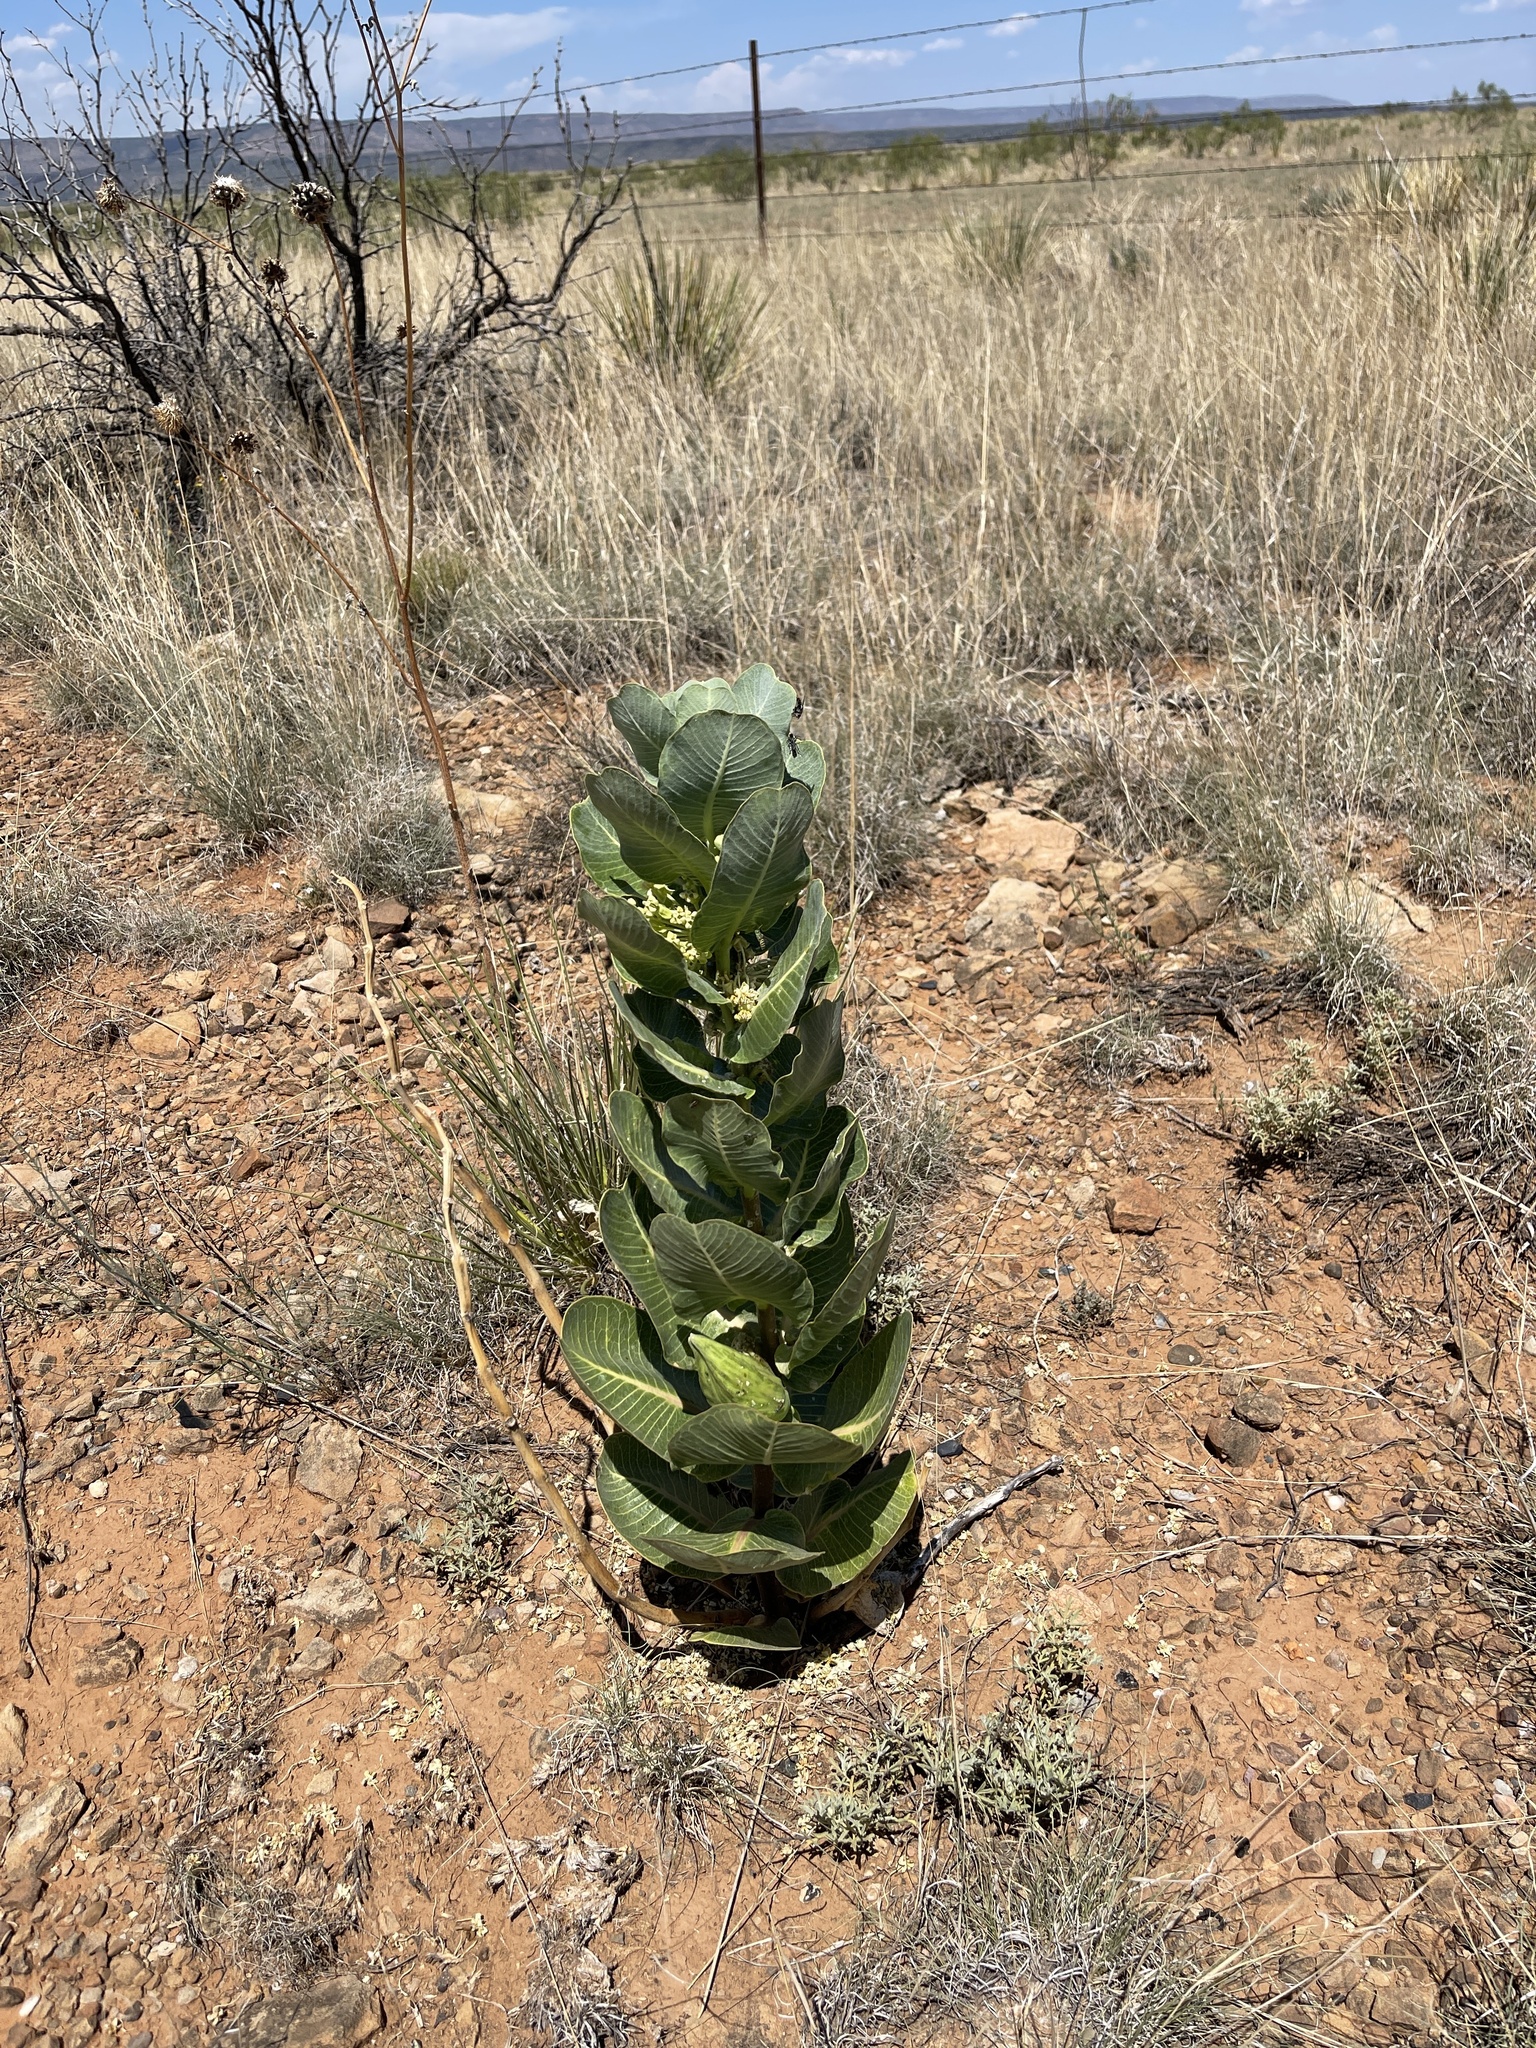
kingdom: Plantae
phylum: Tracheophyta
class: Magnoliopsida
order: Gentianales
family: Apocynaceae
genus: Asclepias
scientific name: Asclepias latifolia
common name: Broadleaf milkweed
